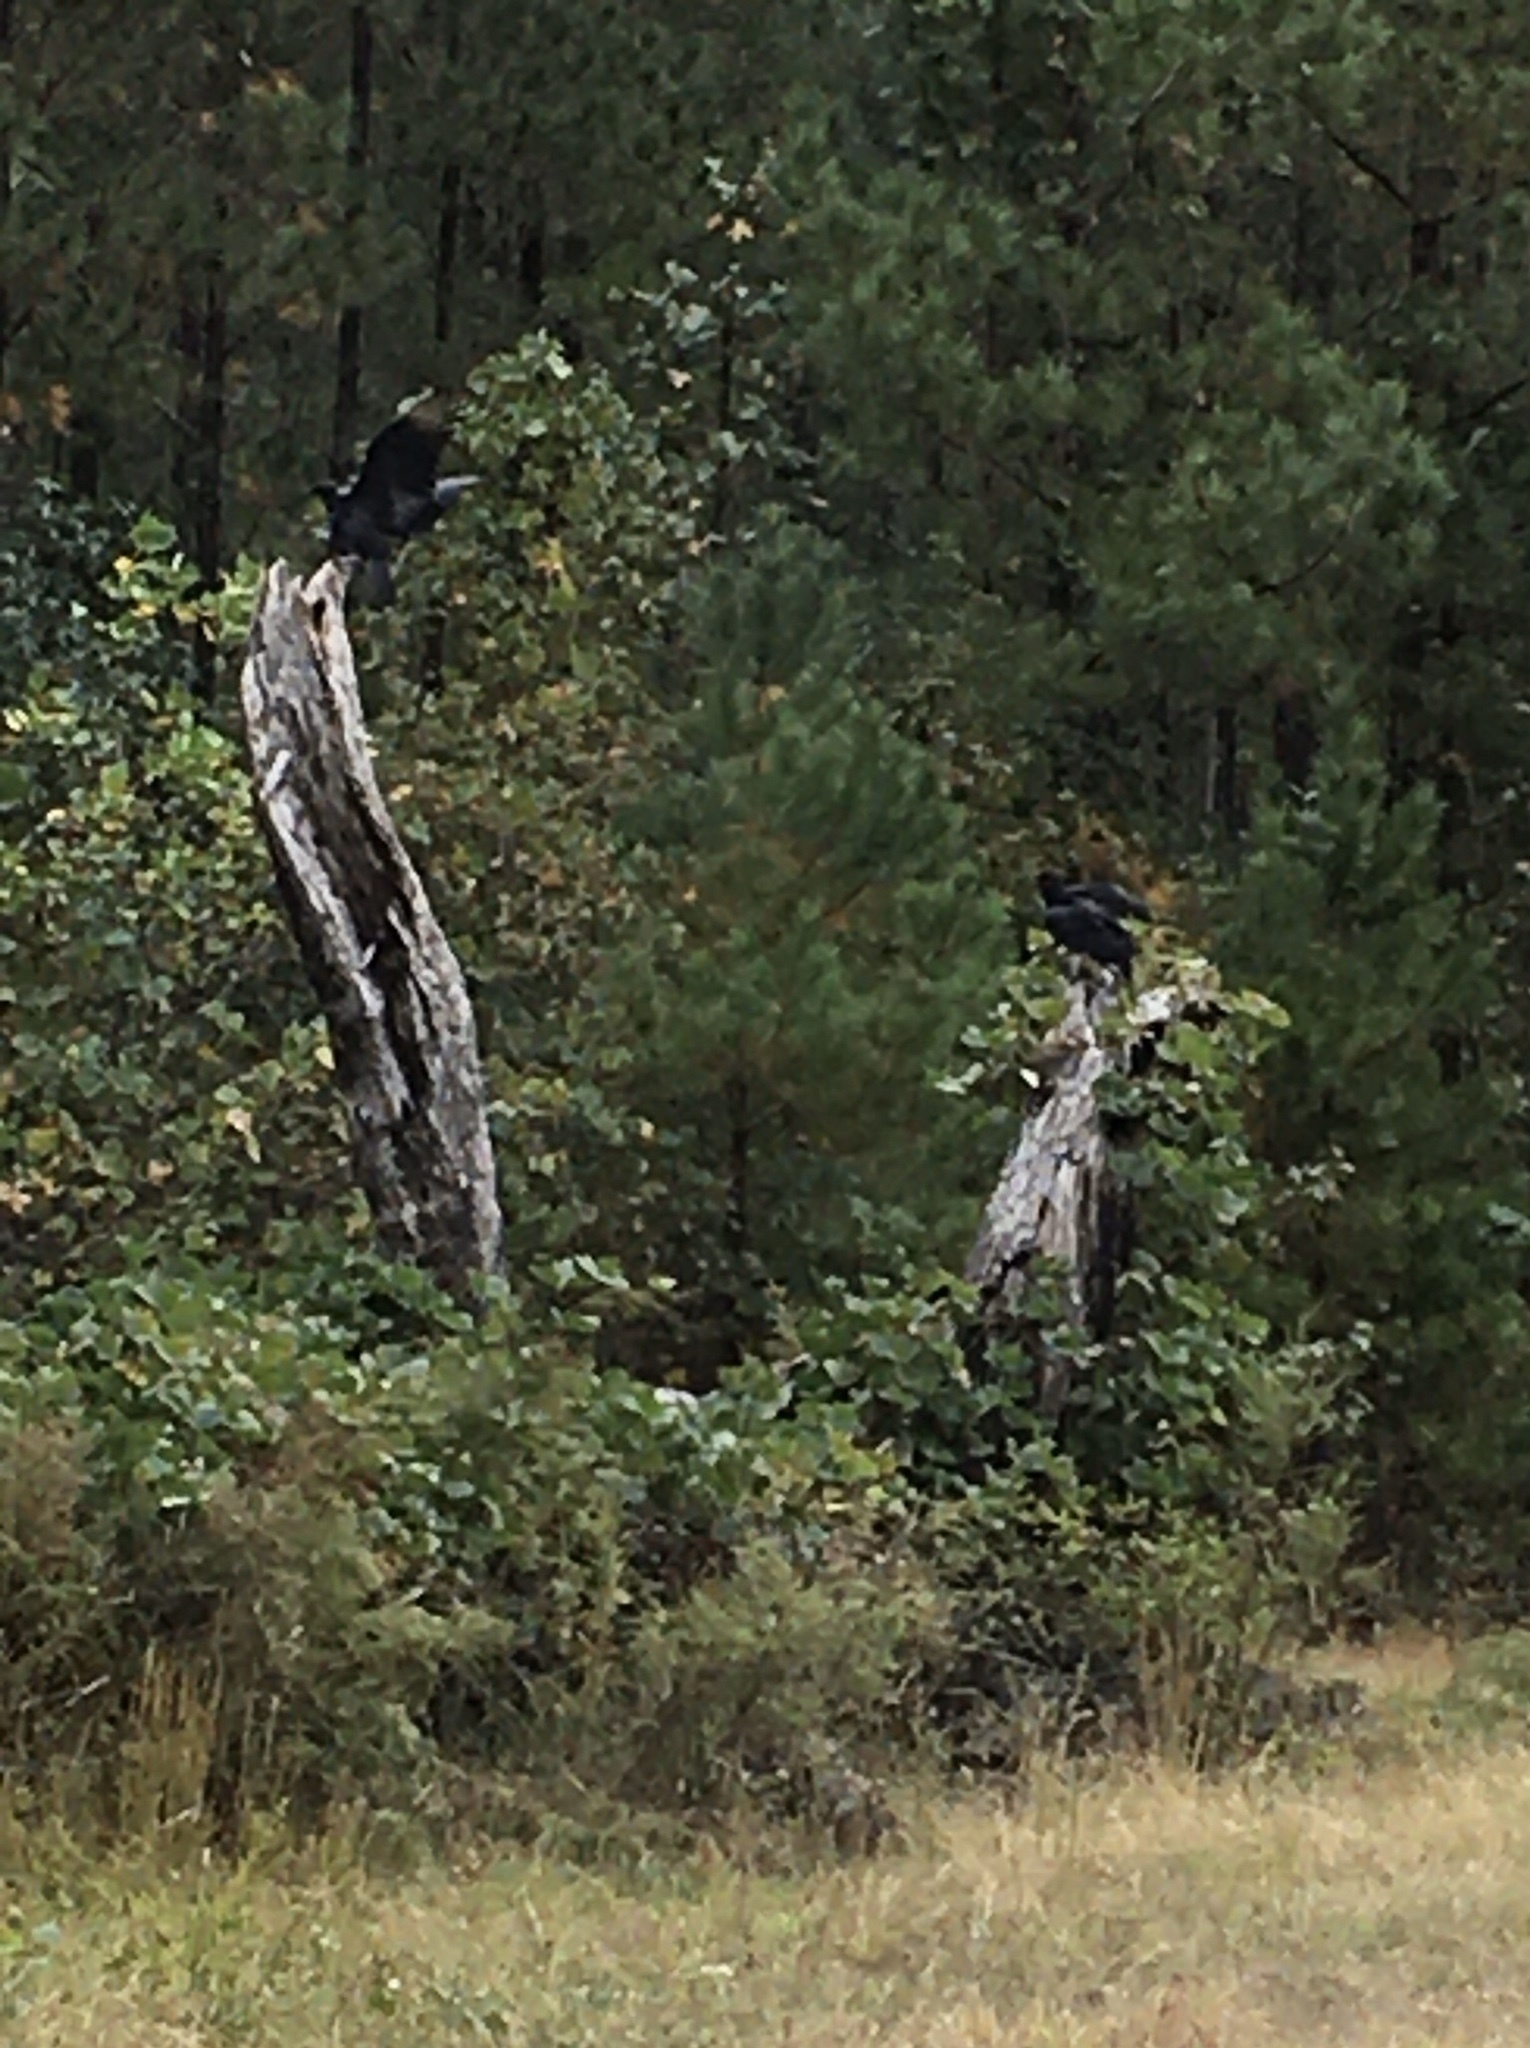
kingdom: Animalia
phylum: Chordata
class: Aves
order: Accipitriformes
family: Cathartidae
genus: Coragyps
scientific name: Coragyps atratus
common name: Black vulture
